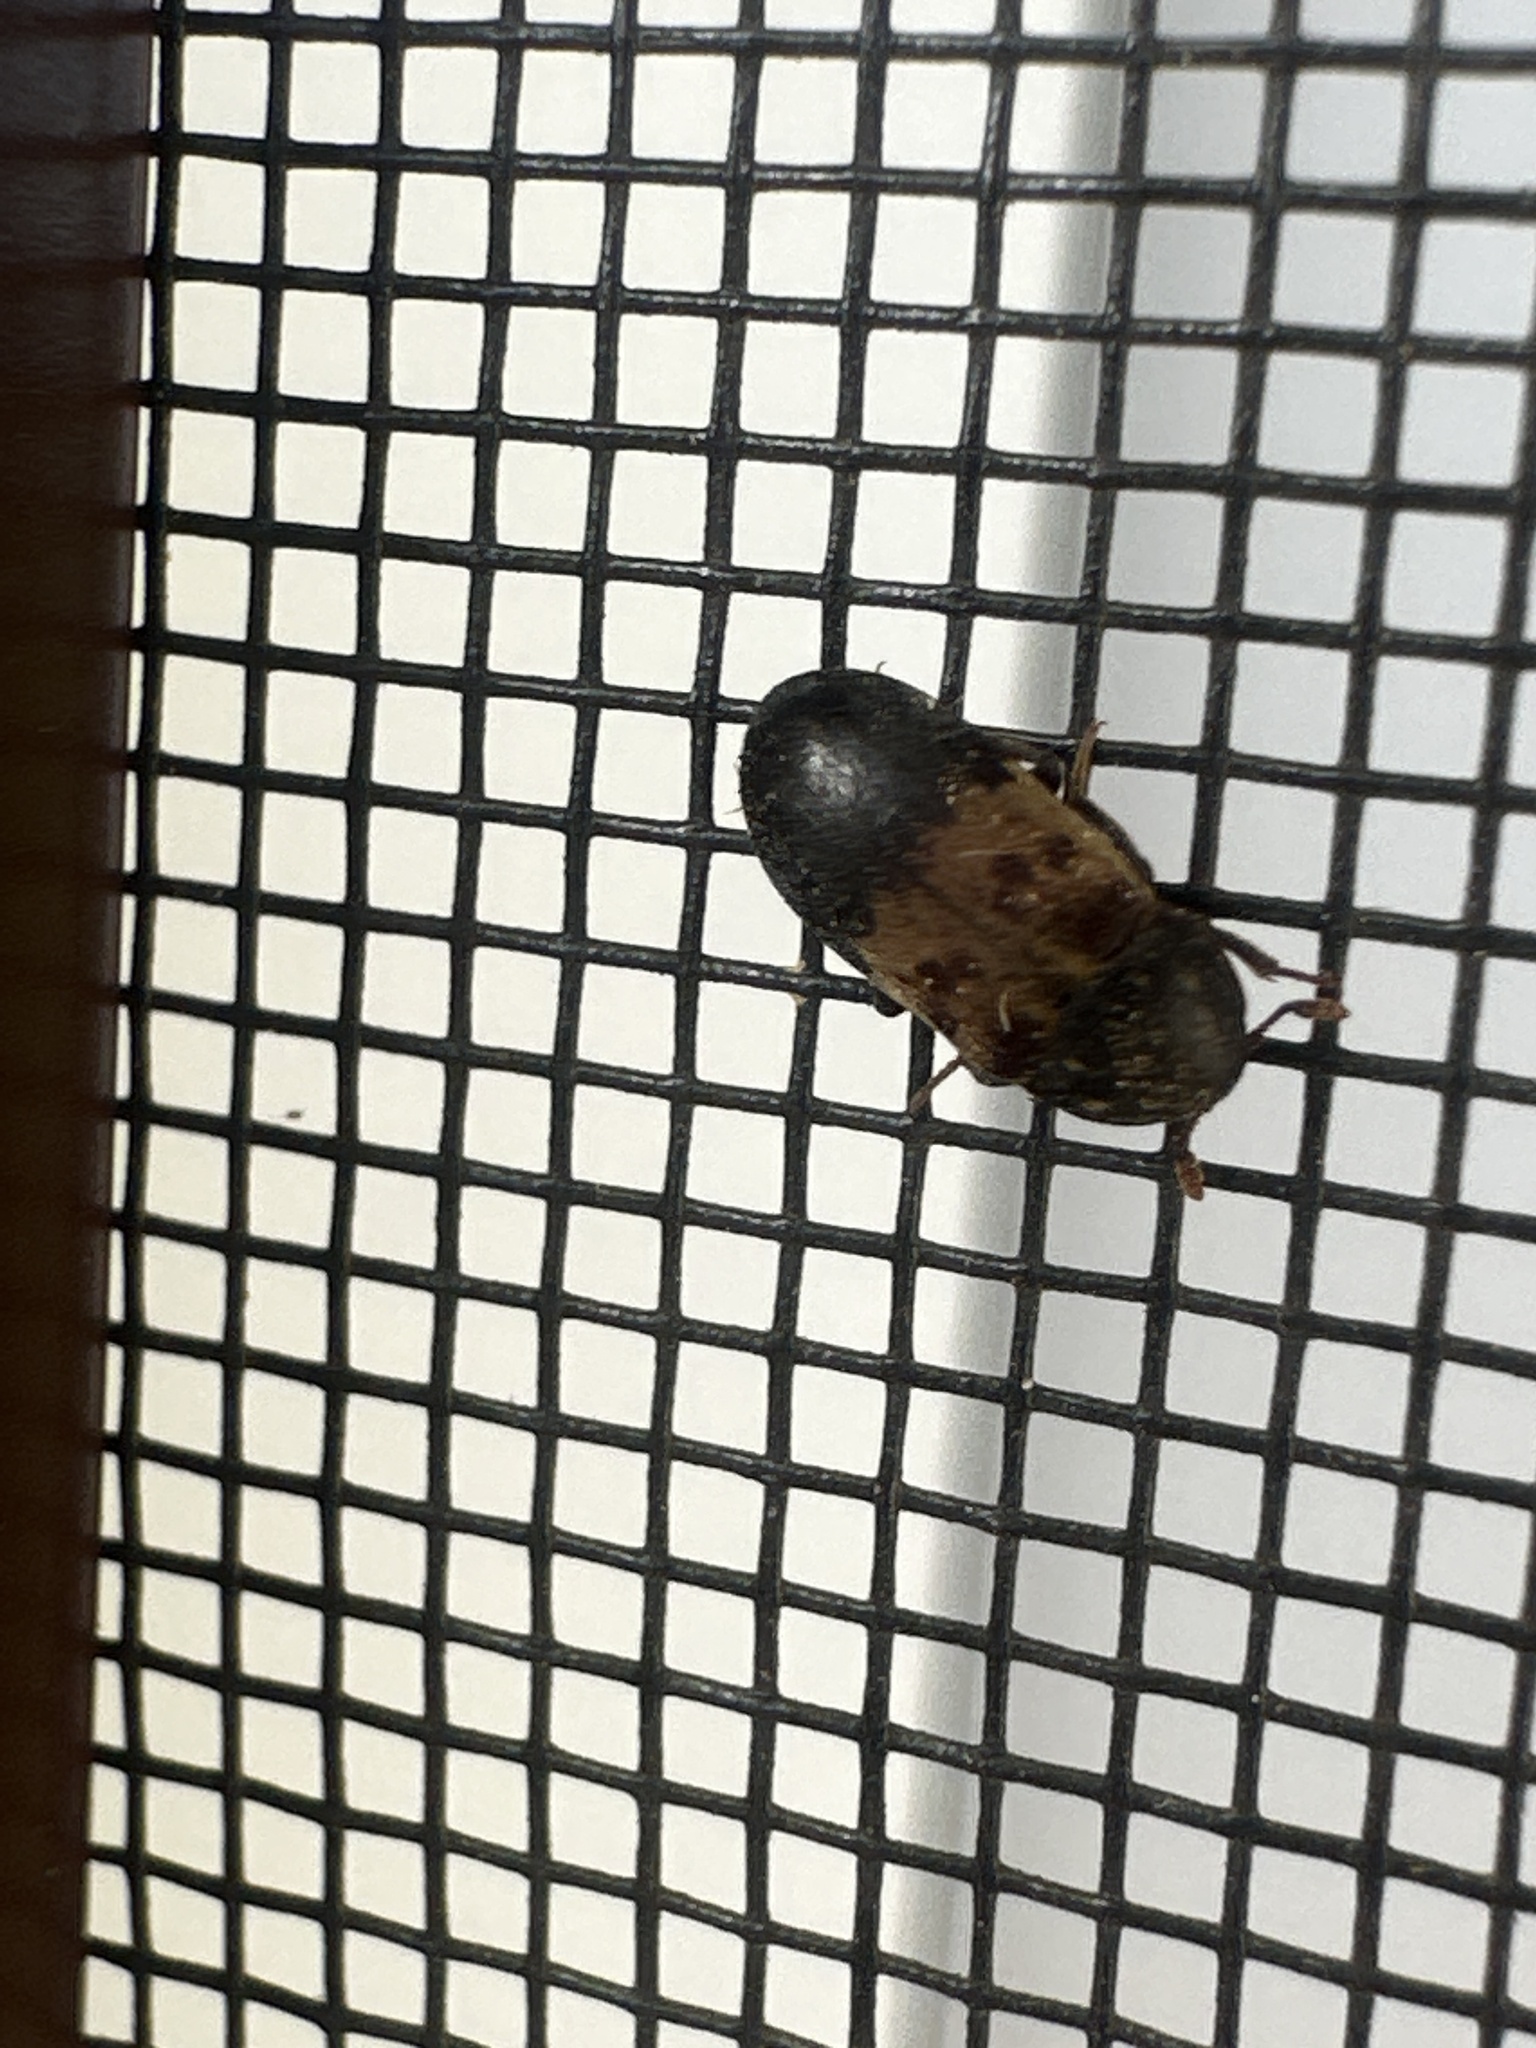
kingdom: Animalia
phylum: Arthropoda
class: Insecta
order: Coleoptera
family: Dermestidae
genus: Dermestes
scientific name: Dermestes lardarius
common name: Larder beetle
